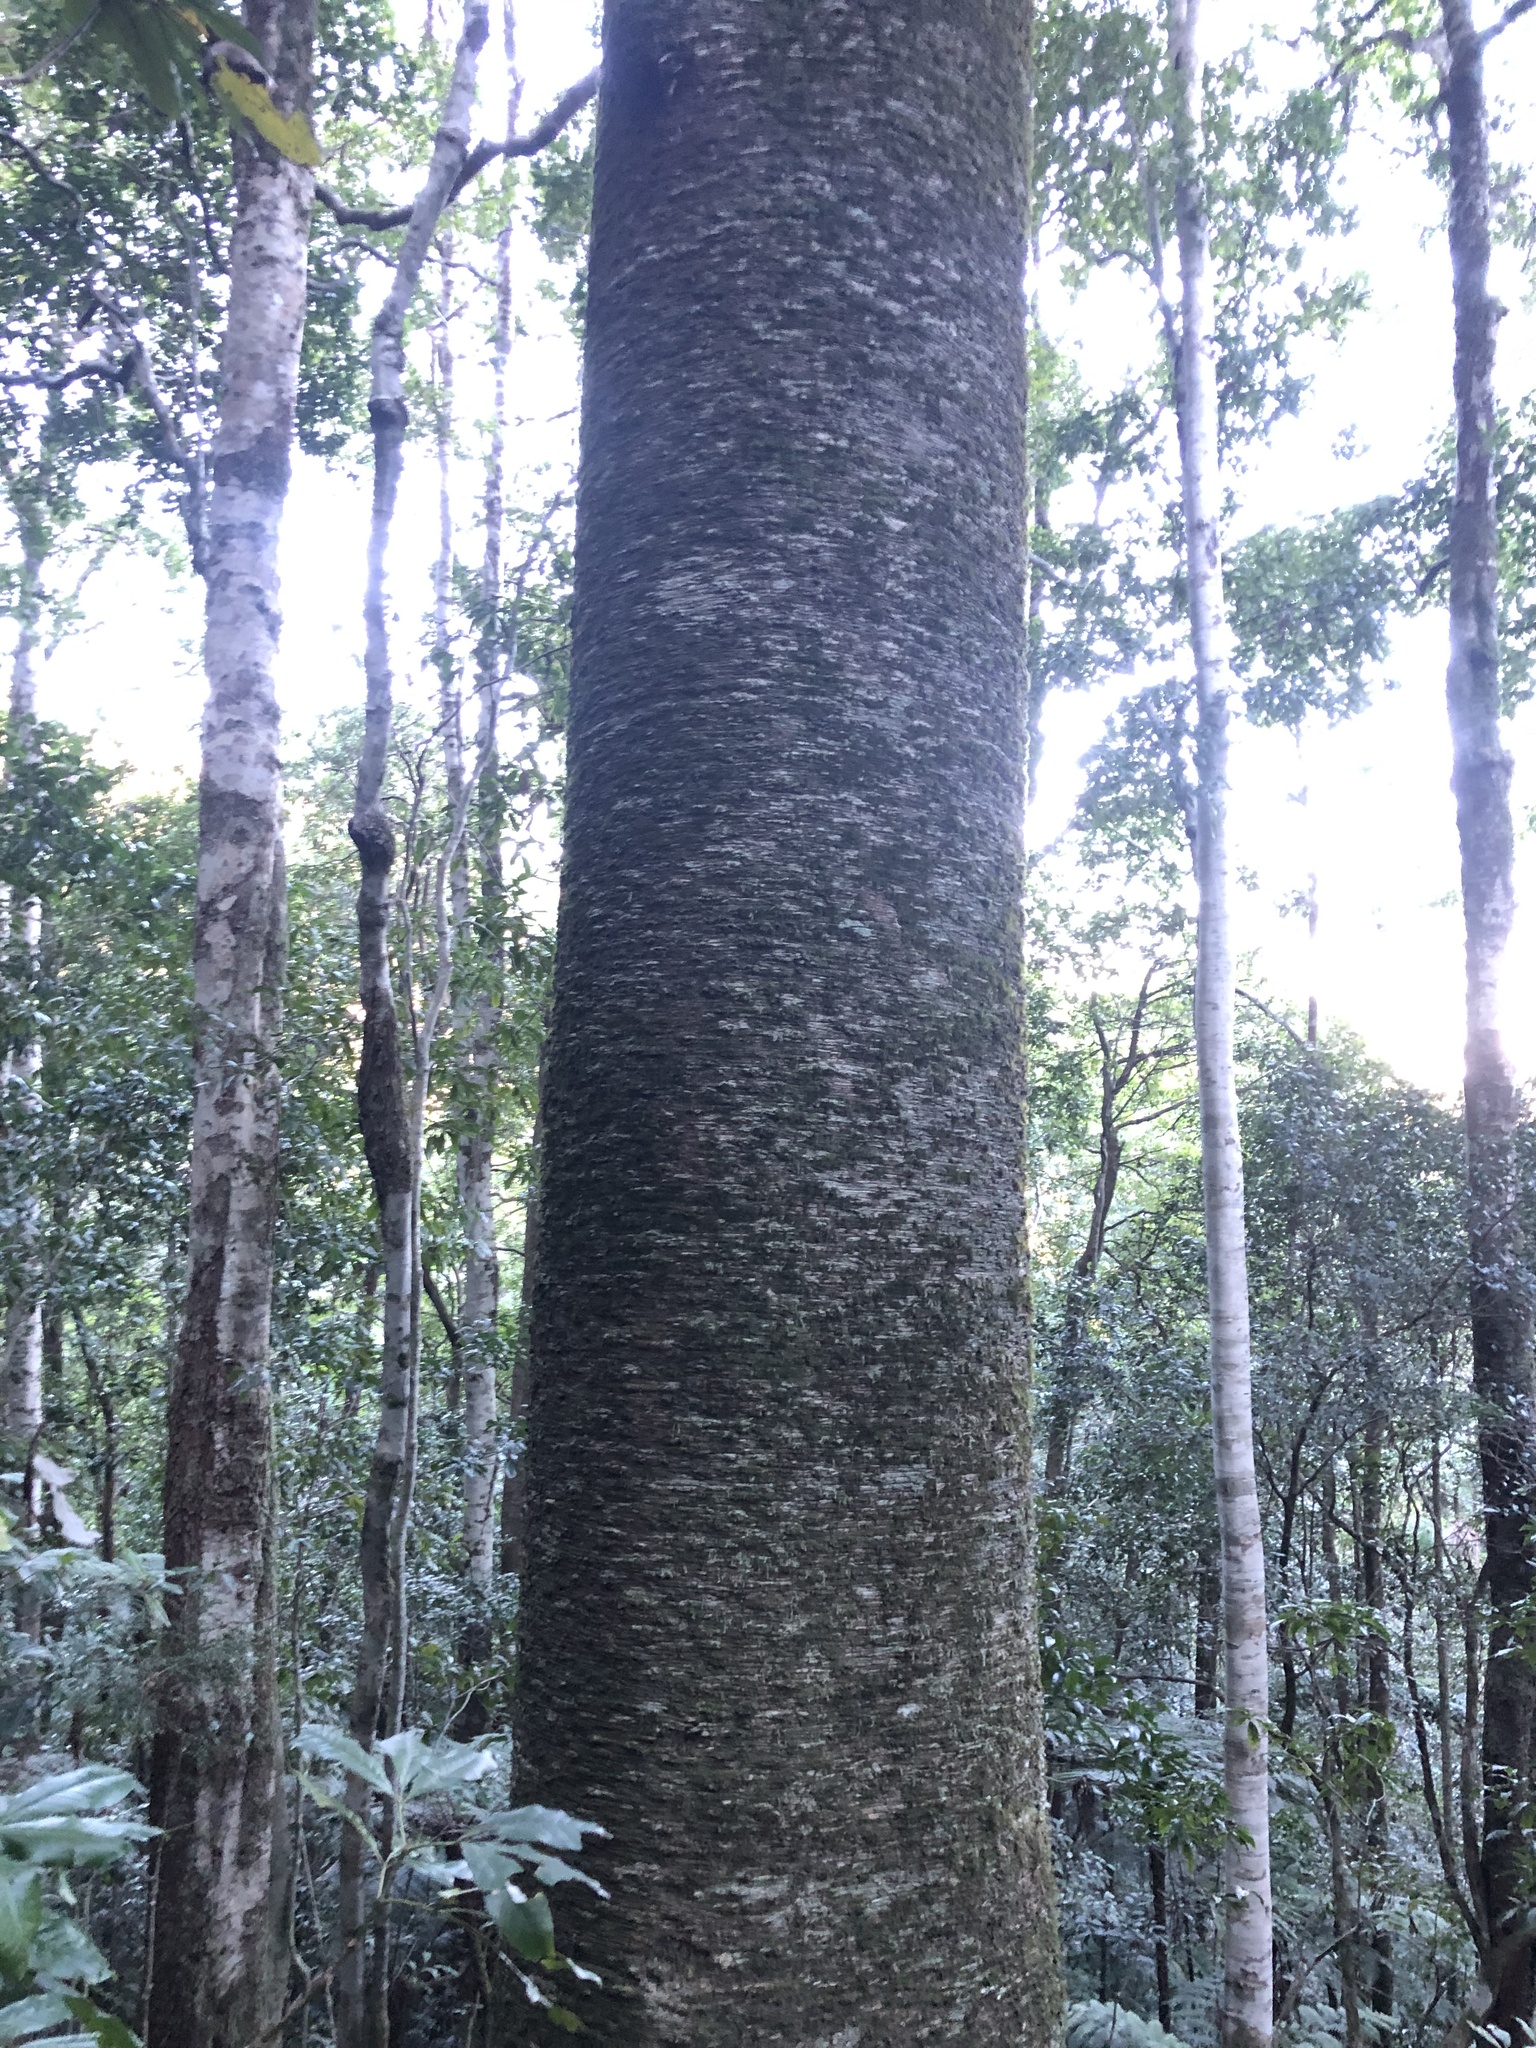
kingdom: Plantae
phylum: Tracheophyta
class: Pinopsida
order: Pinales
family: Araucariaceae
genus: Araucaria
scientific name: Araucaria cunninghamii
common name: Colonial pine
